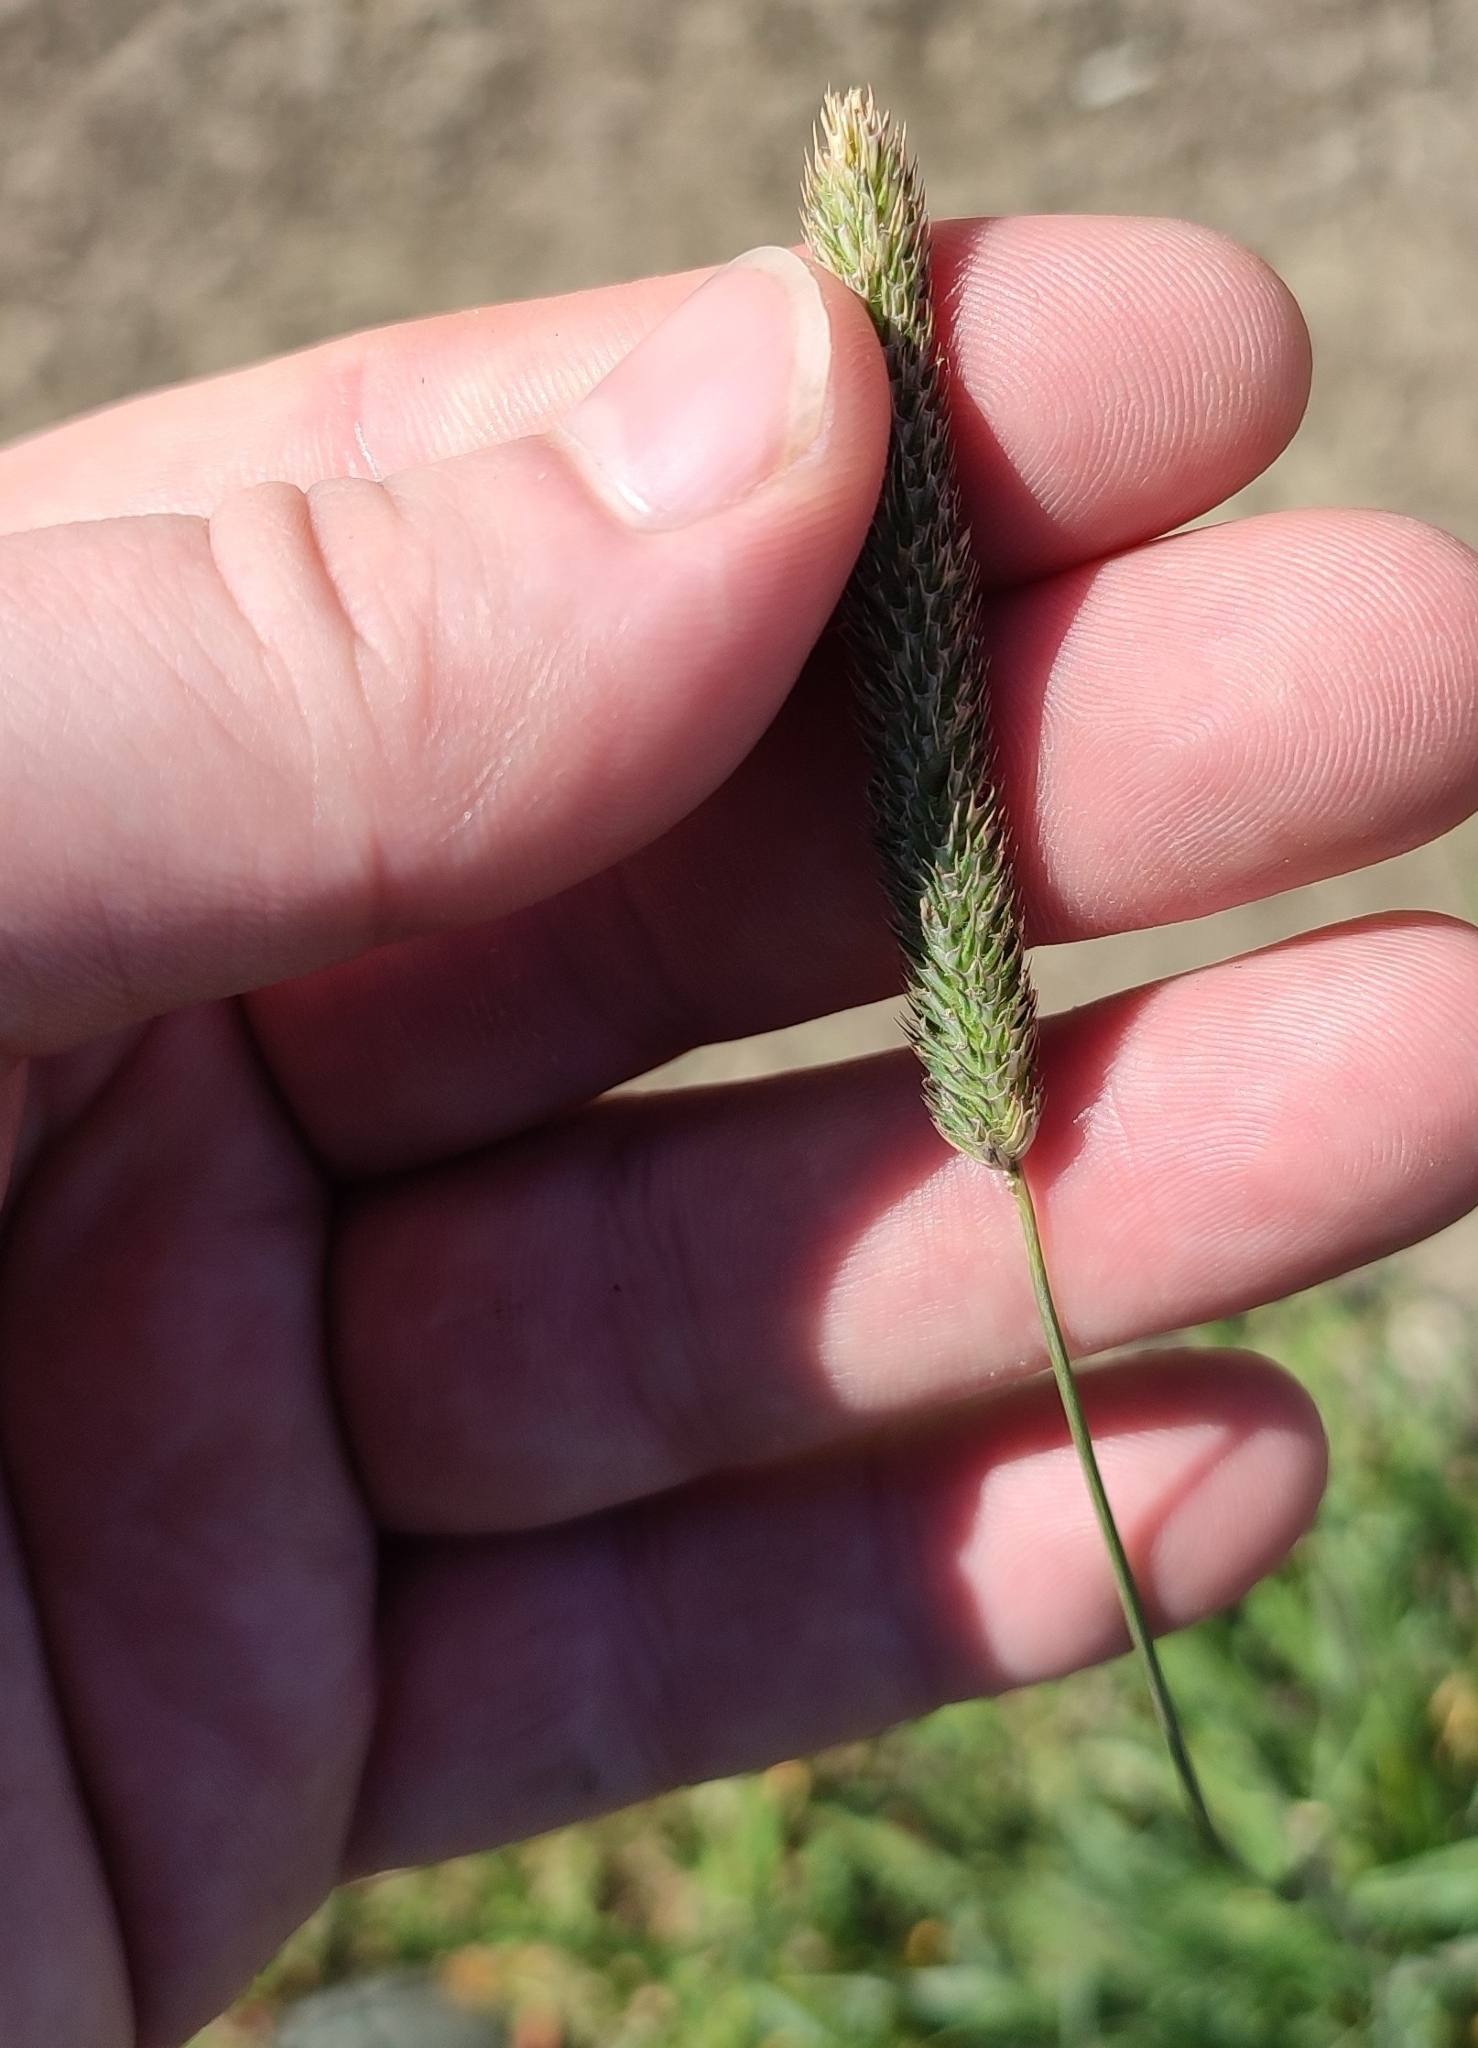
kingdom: Plantae
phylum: Tracheophyta
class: Liliopsida
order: Poales
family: Poaceae
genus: Phleum
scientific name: Phleum pratense
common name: Timothy grass
